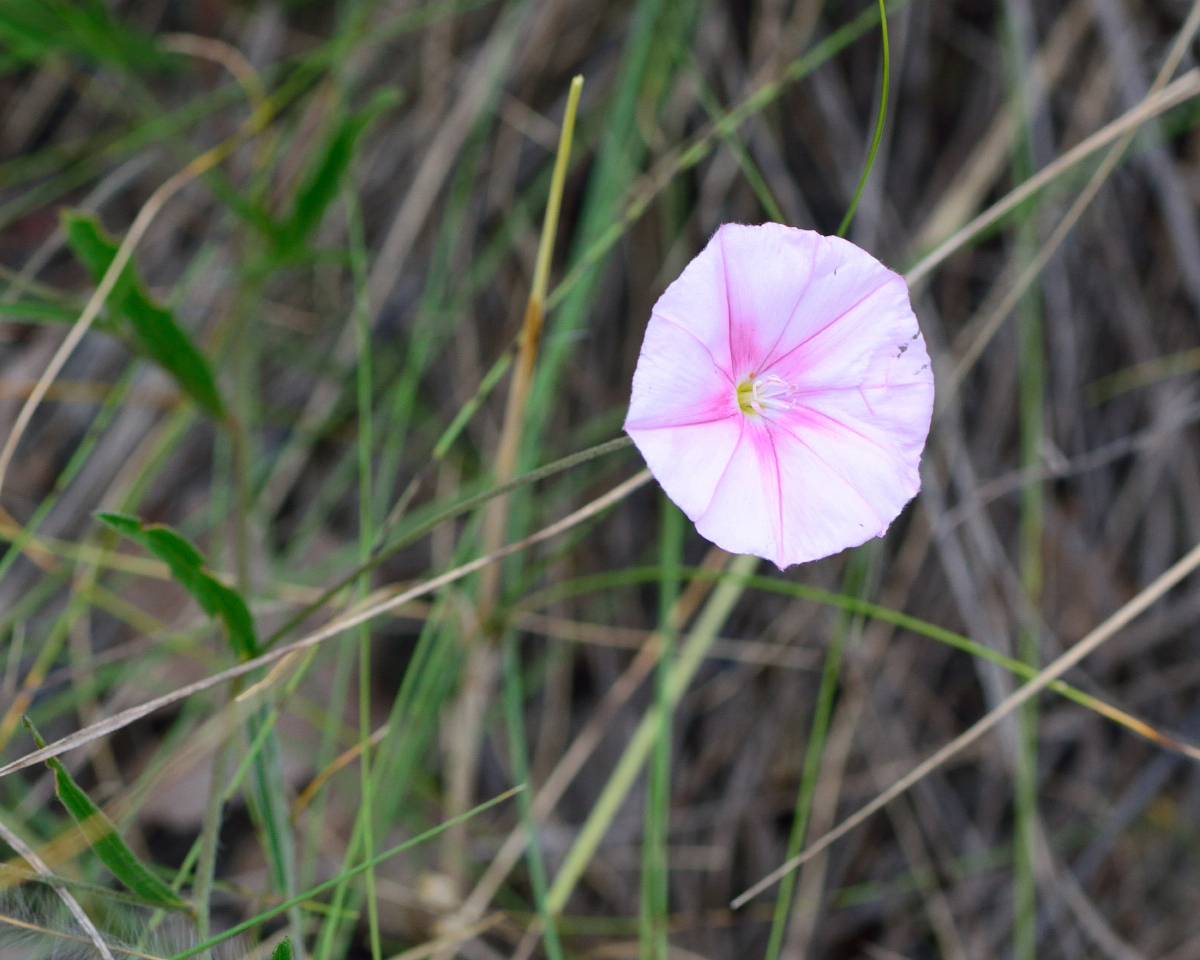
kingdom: Plantae
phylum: Tracheophyta
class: Magnoliopsida
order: Solanales
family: Convolvulaceae
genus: Convolvulus
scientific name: Convolvulus cantabrica
